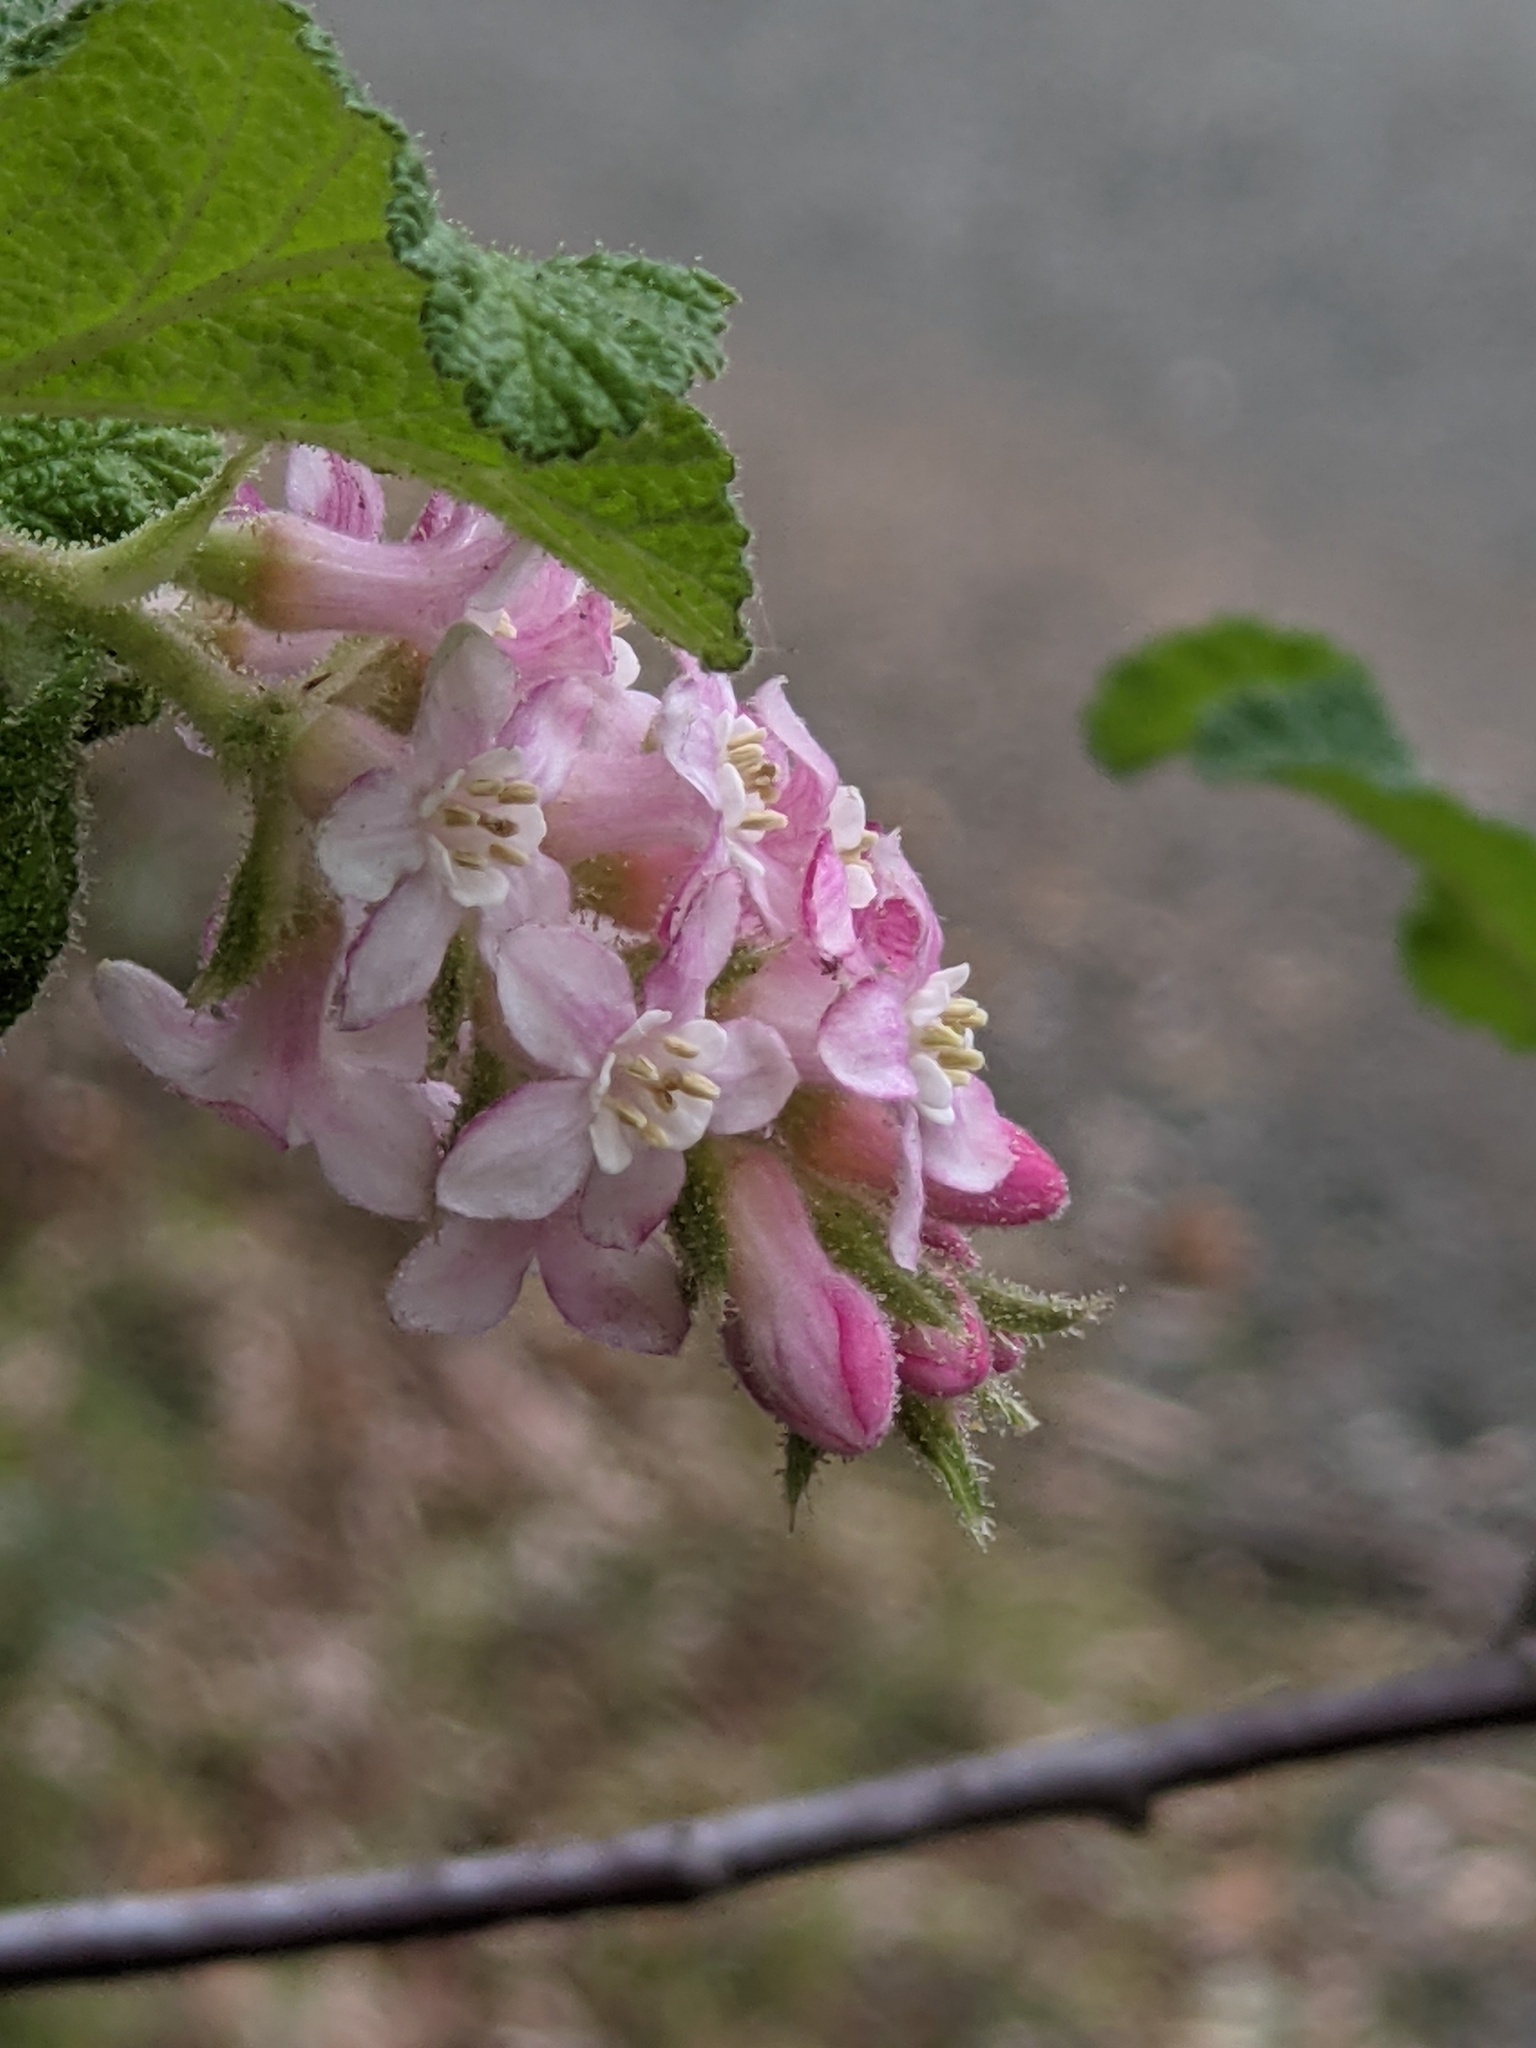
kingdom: Plantae
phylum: Tracheophyta
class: Magnoliopsida
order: Saxifragales
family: Grossulariaceae
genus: Ribes
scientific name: Ribes malvaceum
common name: Chaparral currant
